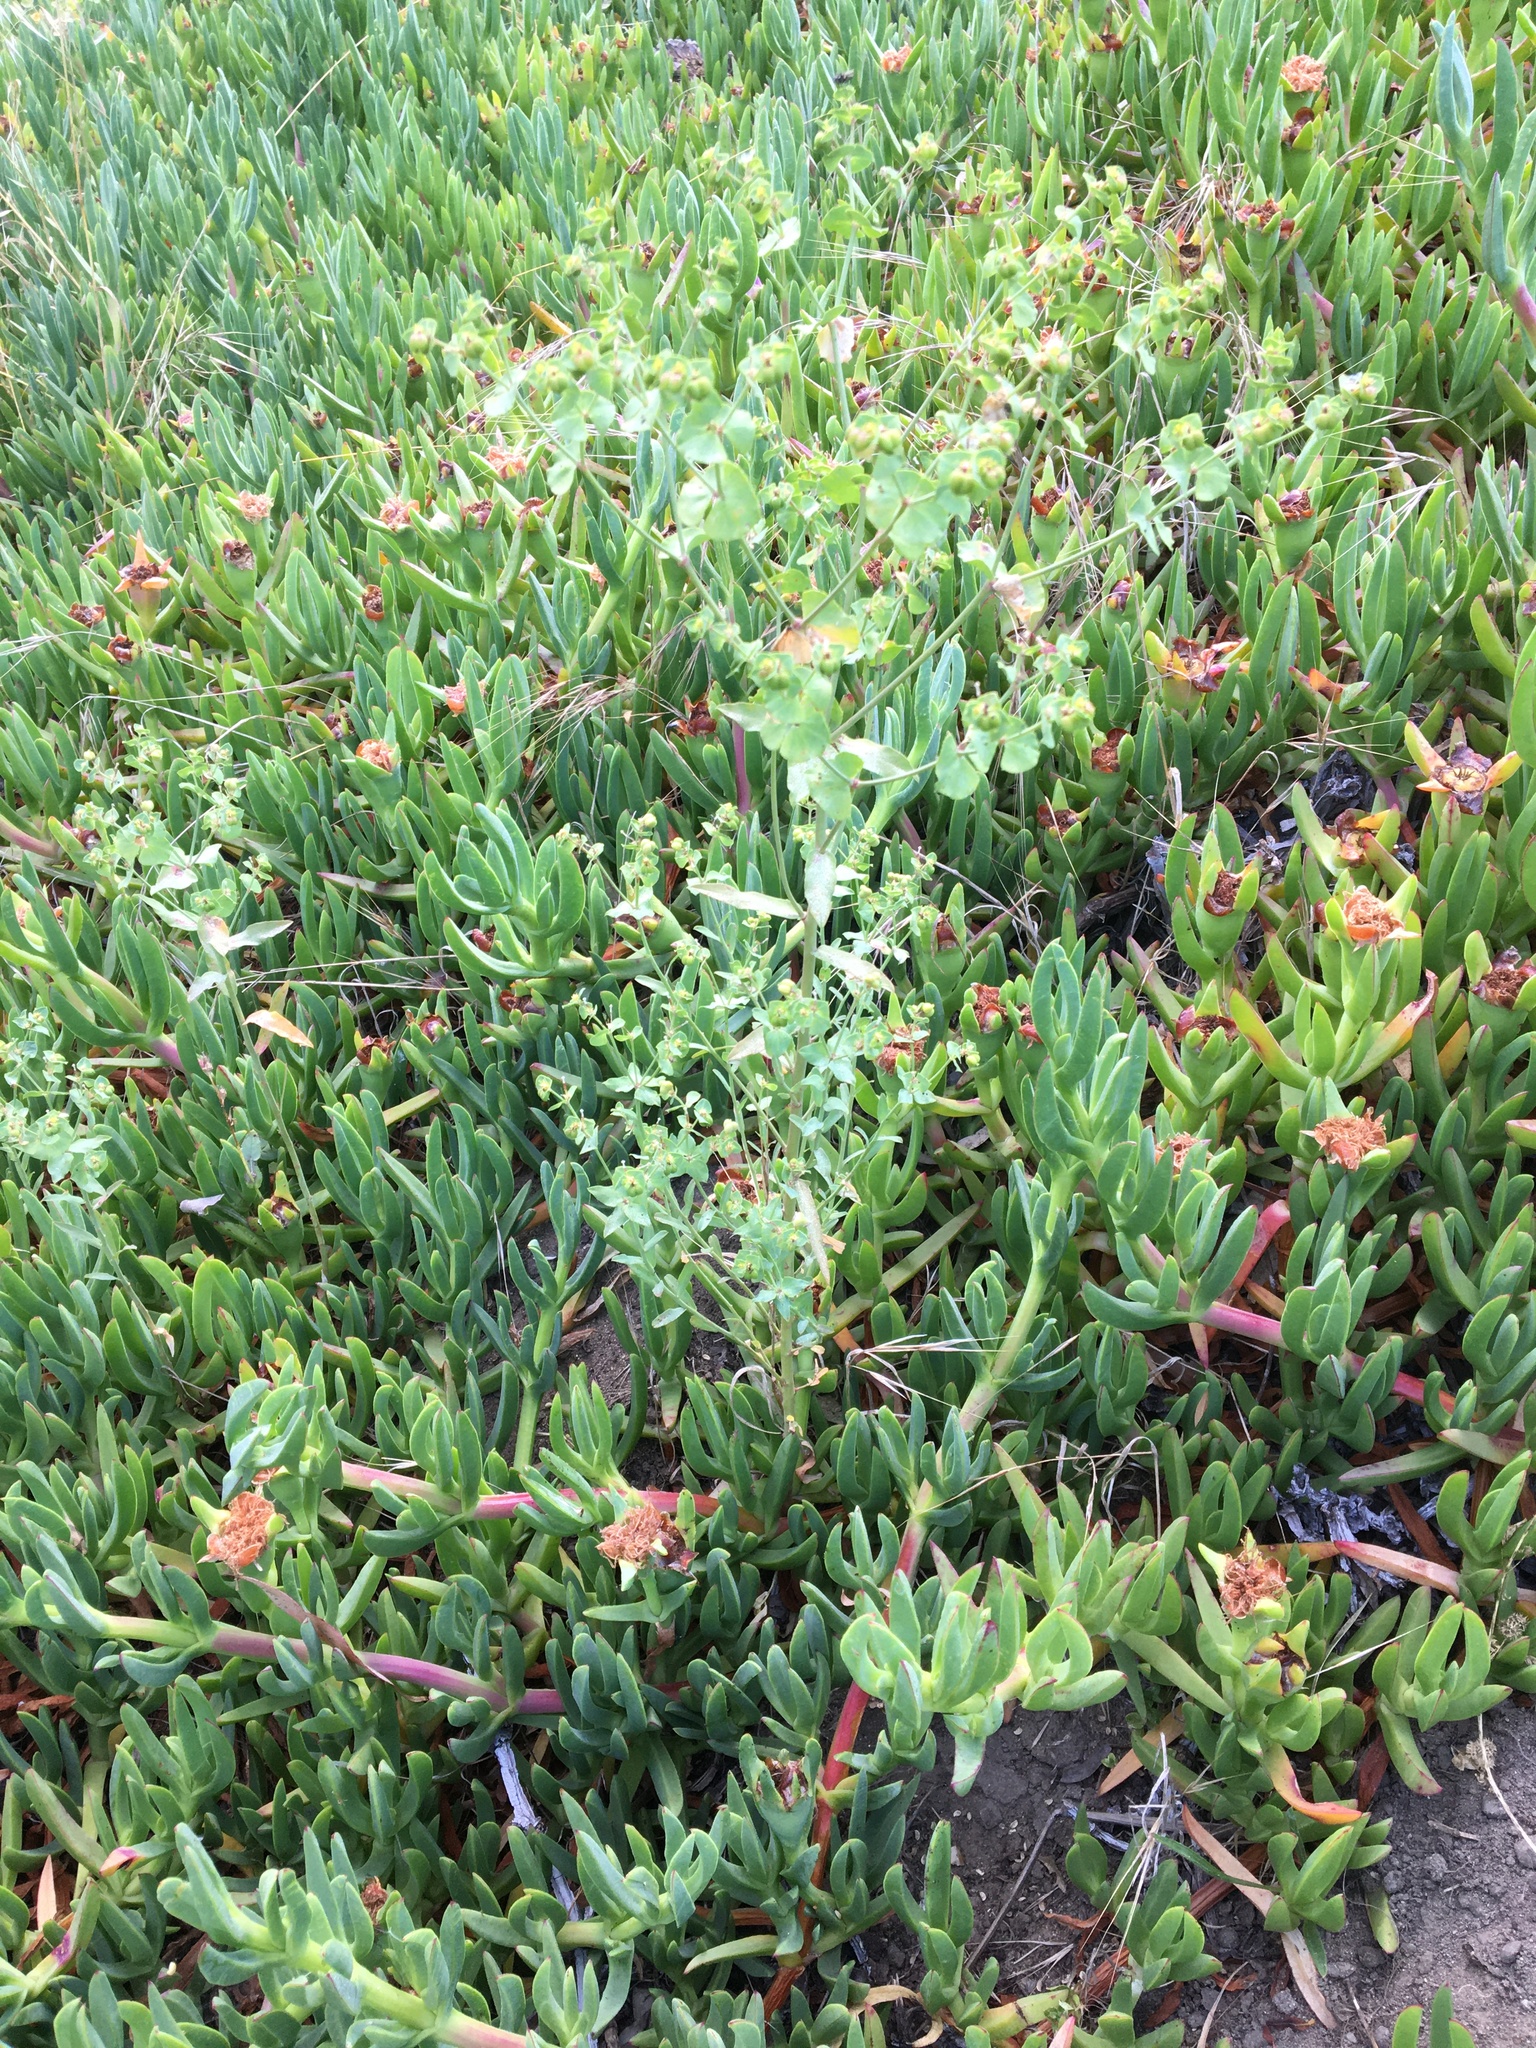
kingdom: Plantae
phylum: Tracheophyta
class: Magnoliopsida
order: Caryophyllales
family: Aizoaceae
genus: Carpobrotus
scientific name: Carpobrotus edulis
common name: Hottentot-fig
